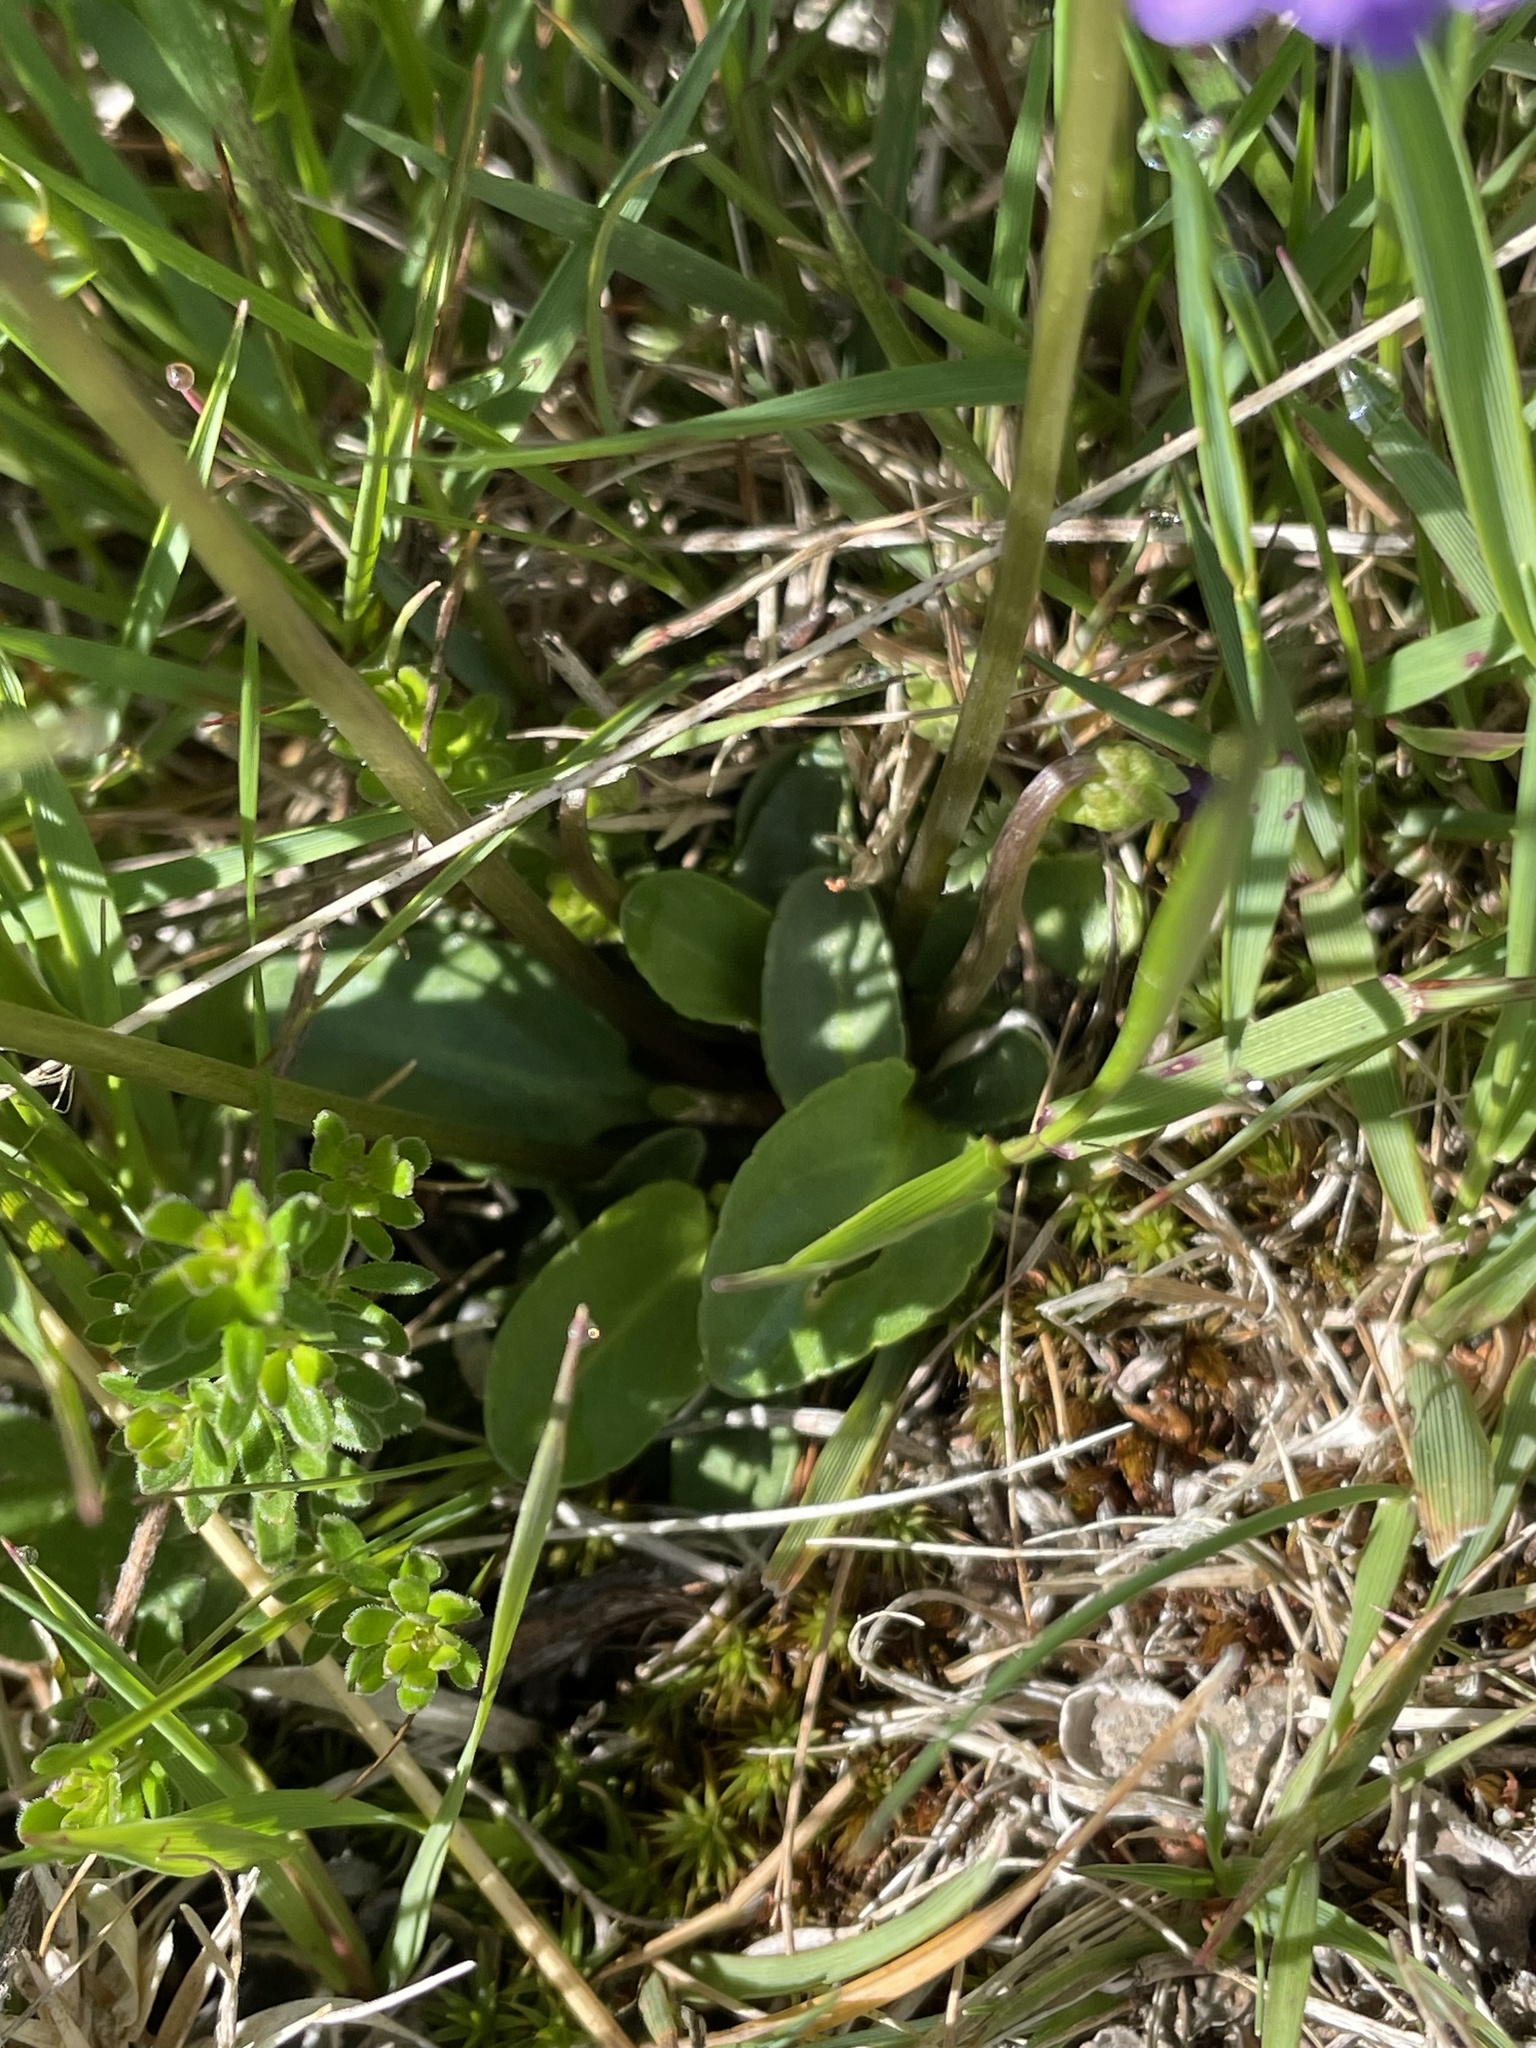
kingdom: Plantae
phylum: Tracheophyta
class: Magnoliopsida
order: Malpighiales
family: Violaceae
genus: Viola
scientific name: Viola betonicifolia
